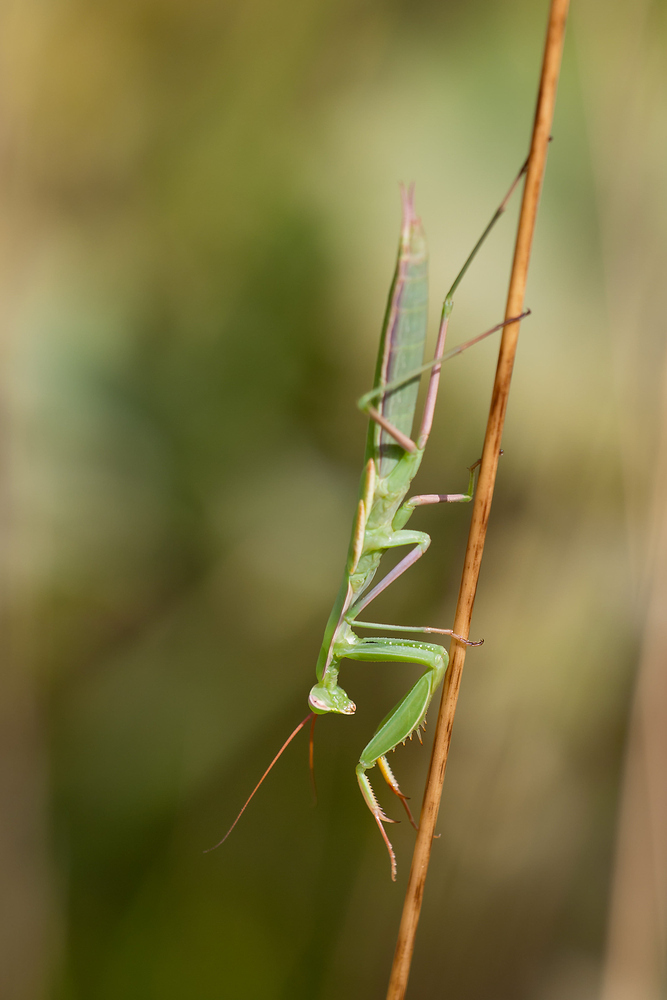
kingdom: Animalia
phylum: Arthropoda
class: Insecta
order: Mantodea
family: Mantidae
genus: Mantis
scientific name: Mantis religiosa
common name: Praying mantis
